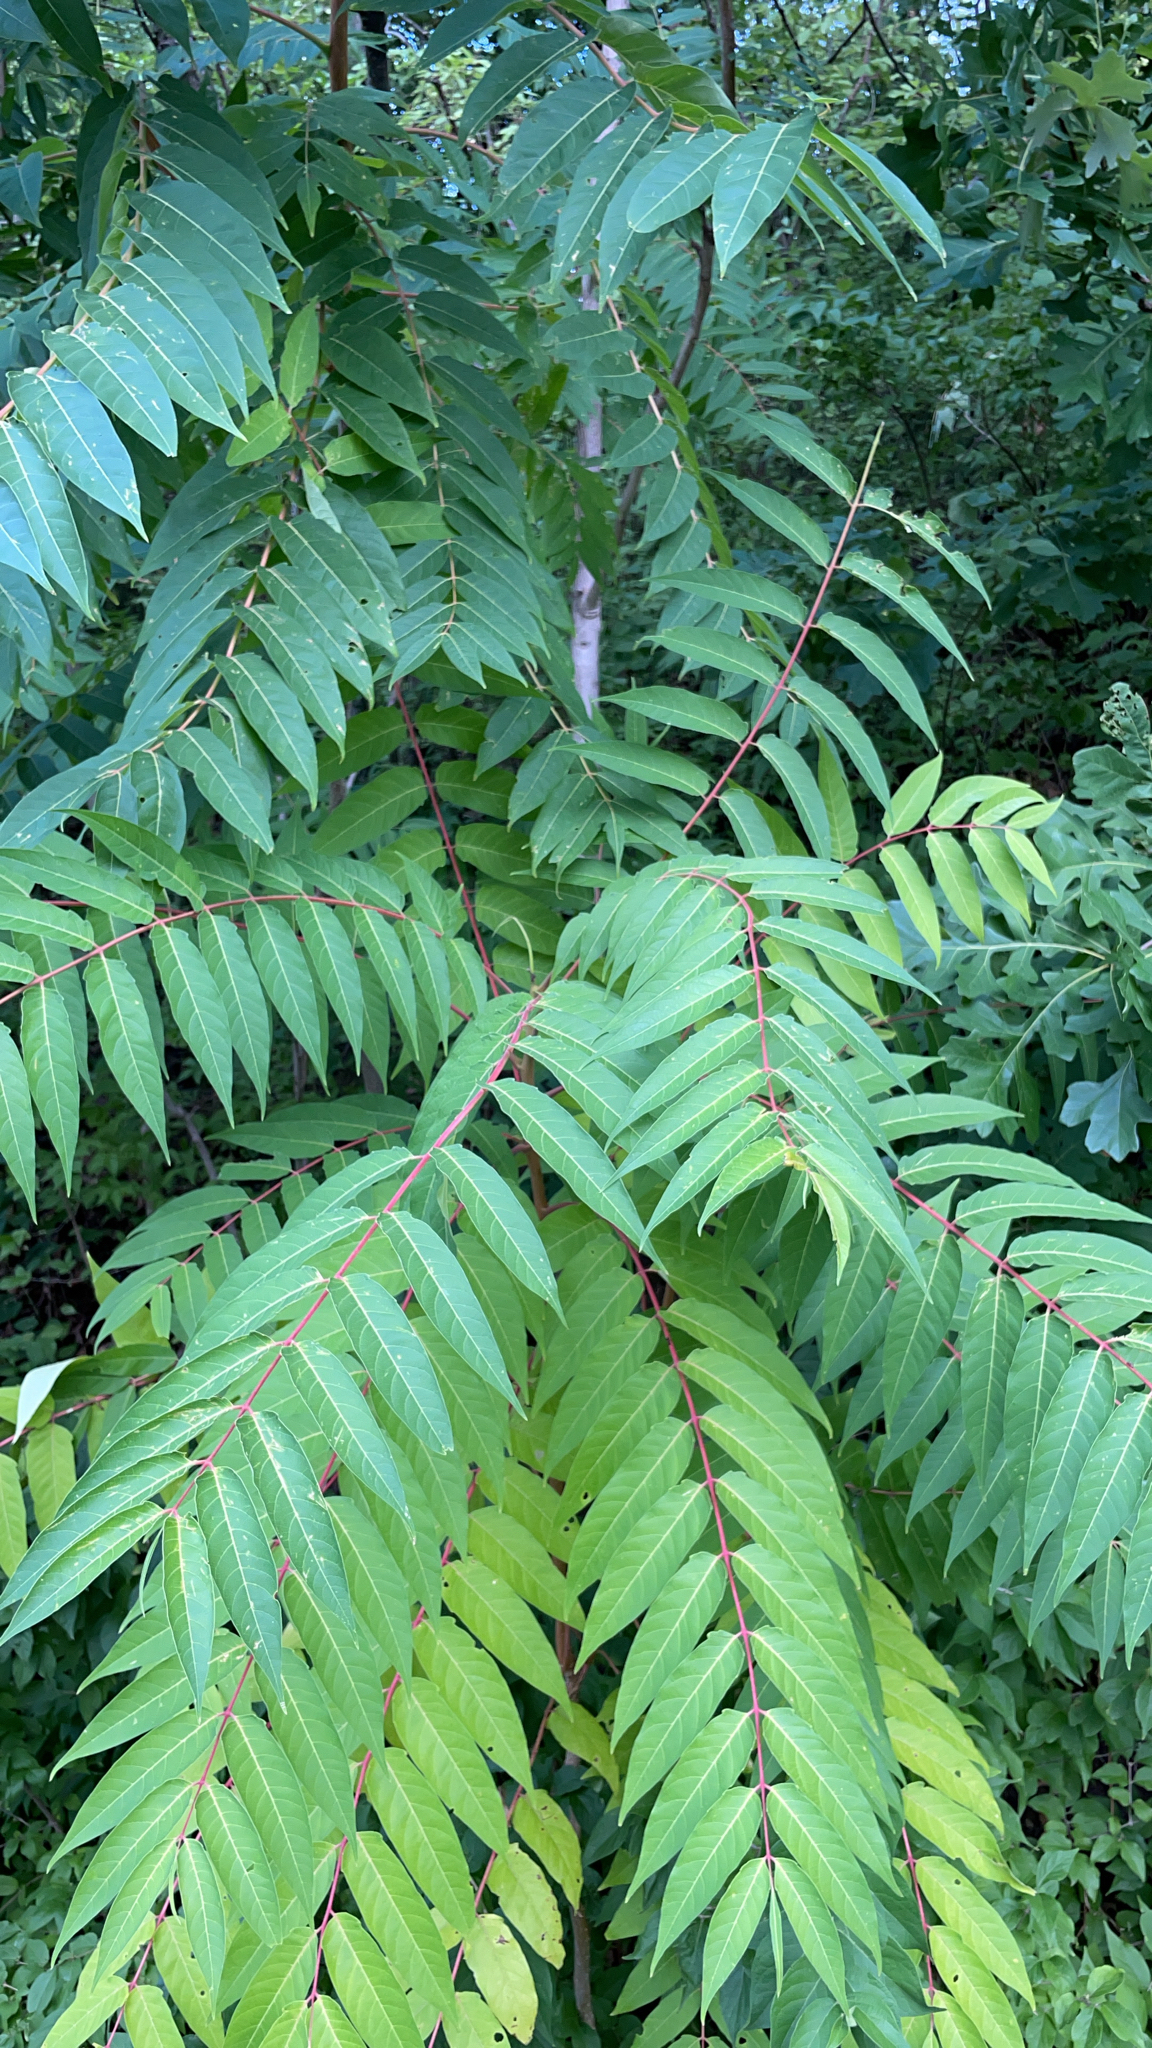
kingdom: Plantae
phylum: Tracheophyta
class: Magnoliopsida
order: Sapindales
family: Simaroubaceae
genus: Ailanthus
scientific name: Ailanthus altissima
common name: Tree-of-heaven
